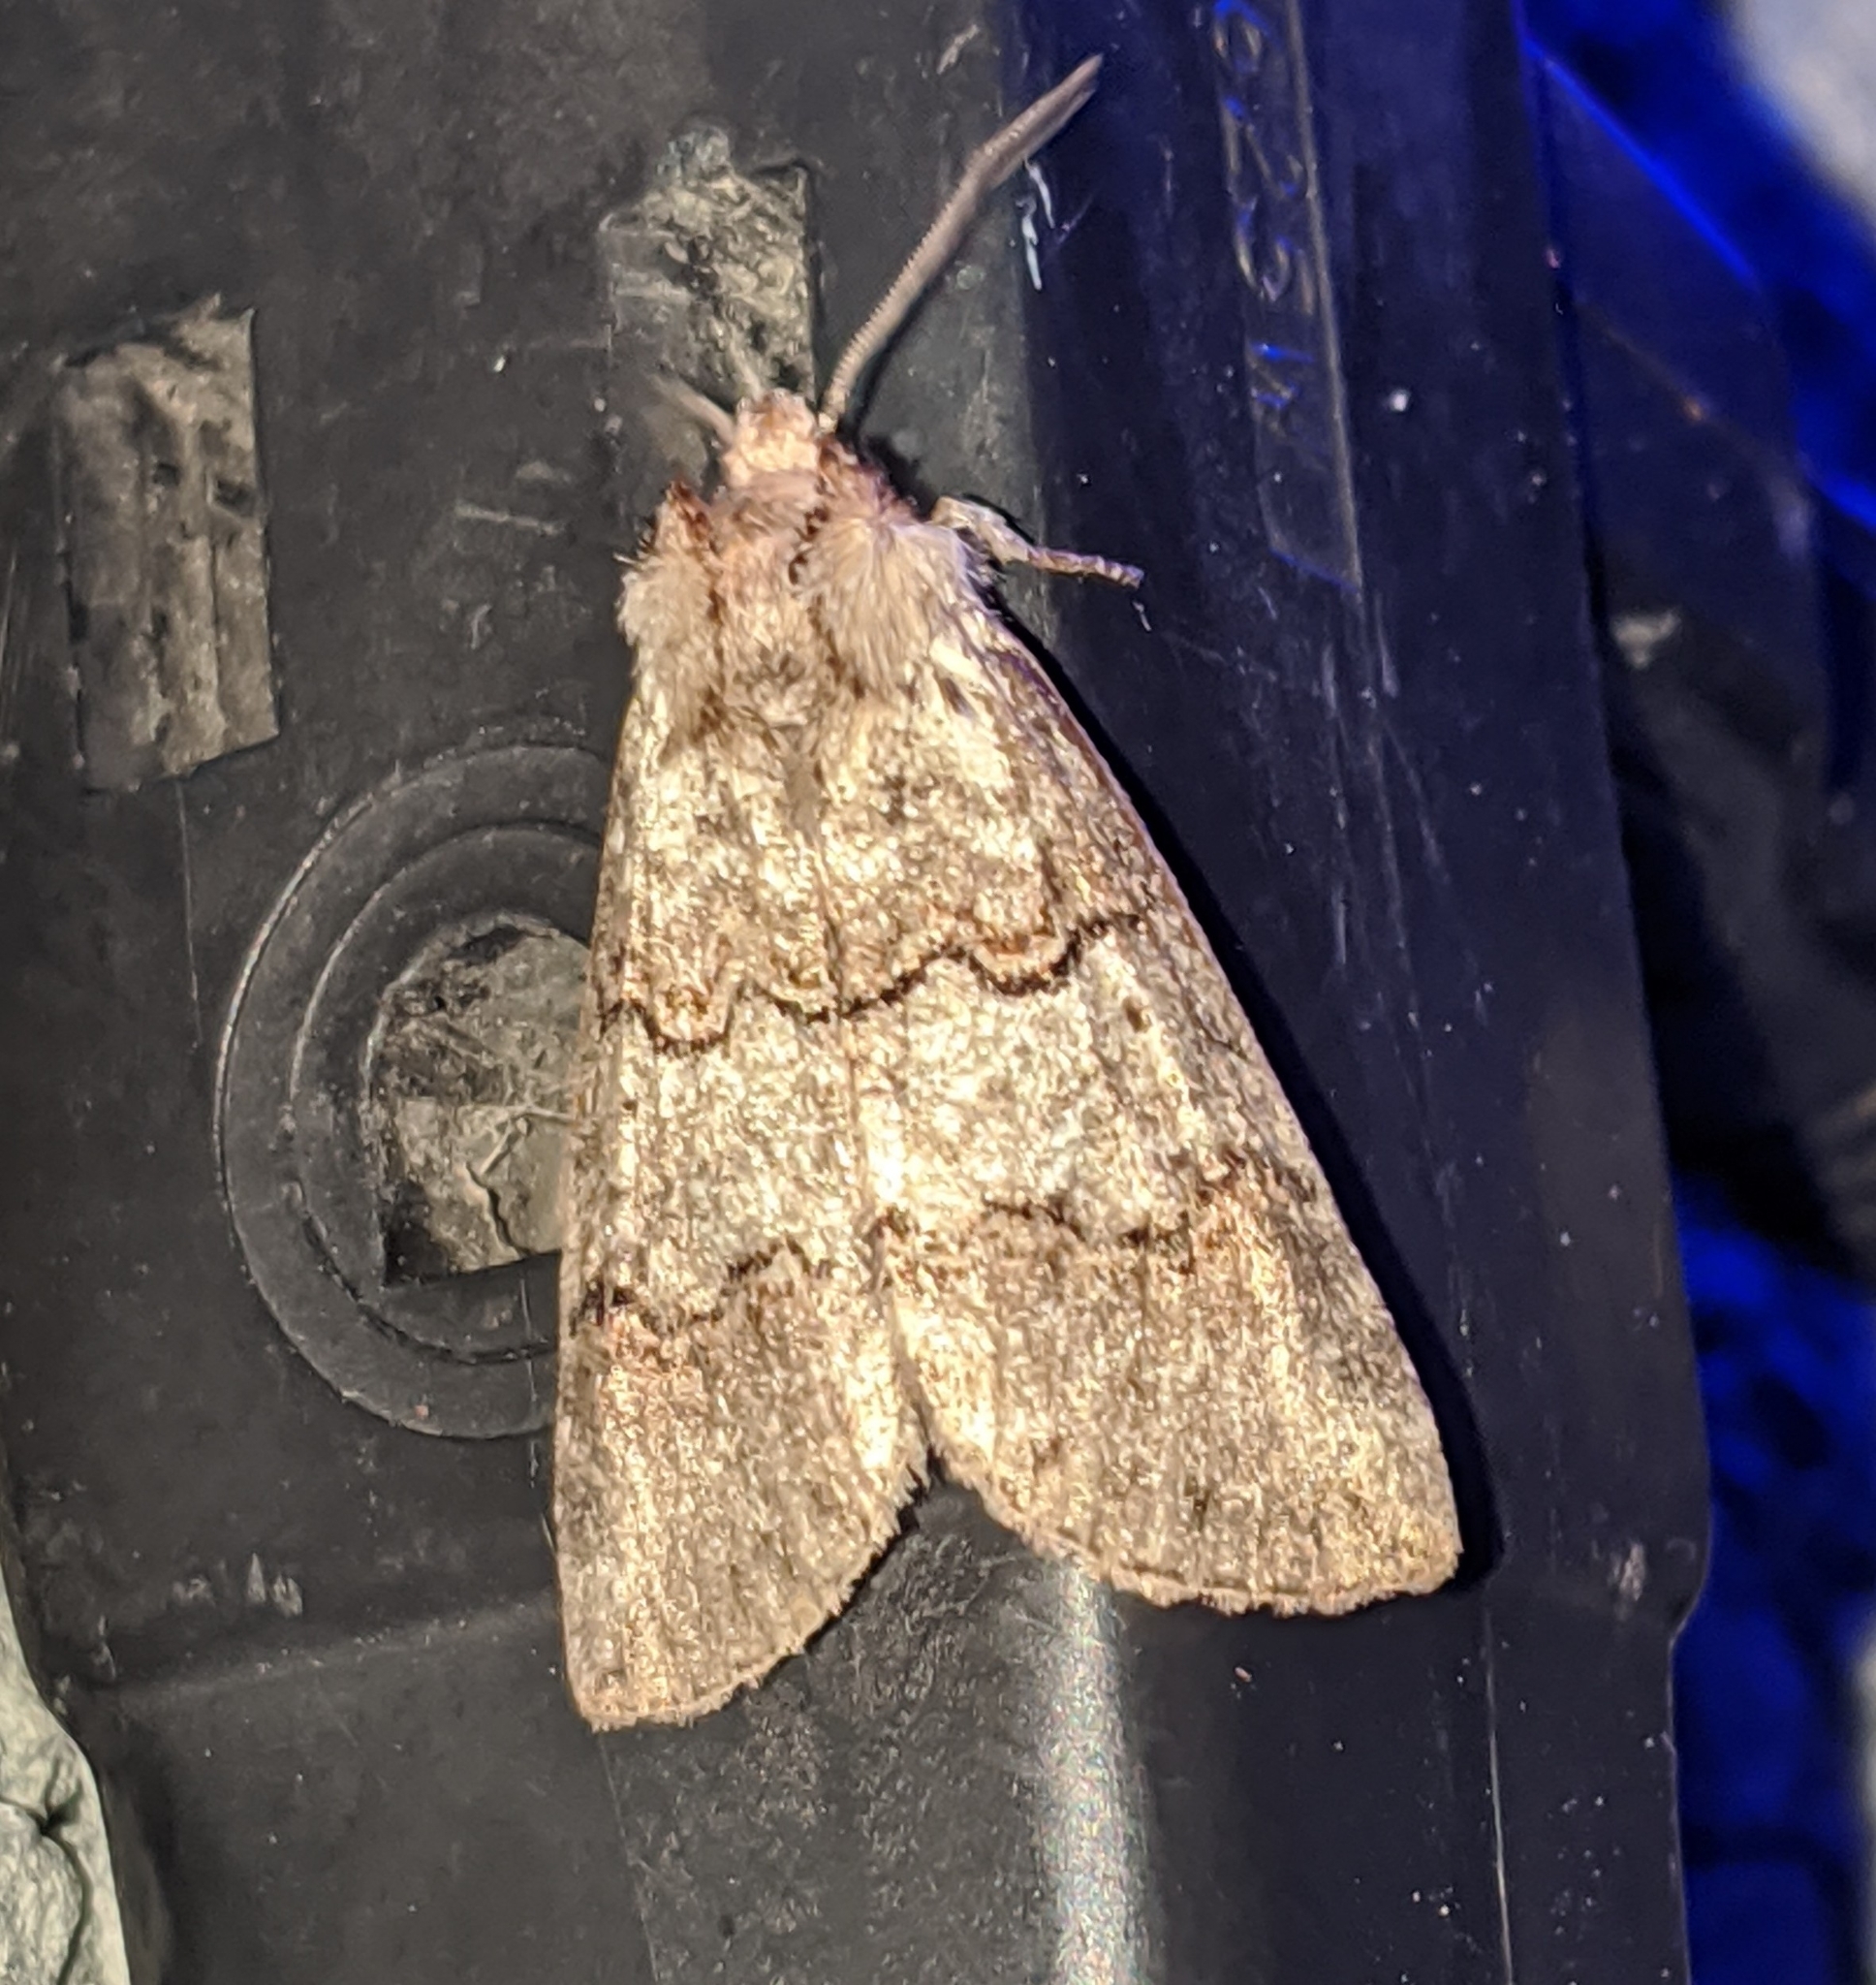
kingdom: Animalia
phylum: Arthropoda
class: Insecta
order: Lepidoptera
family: Drepanidae
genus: Ceranemota
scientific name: Ceranemota fasciata
